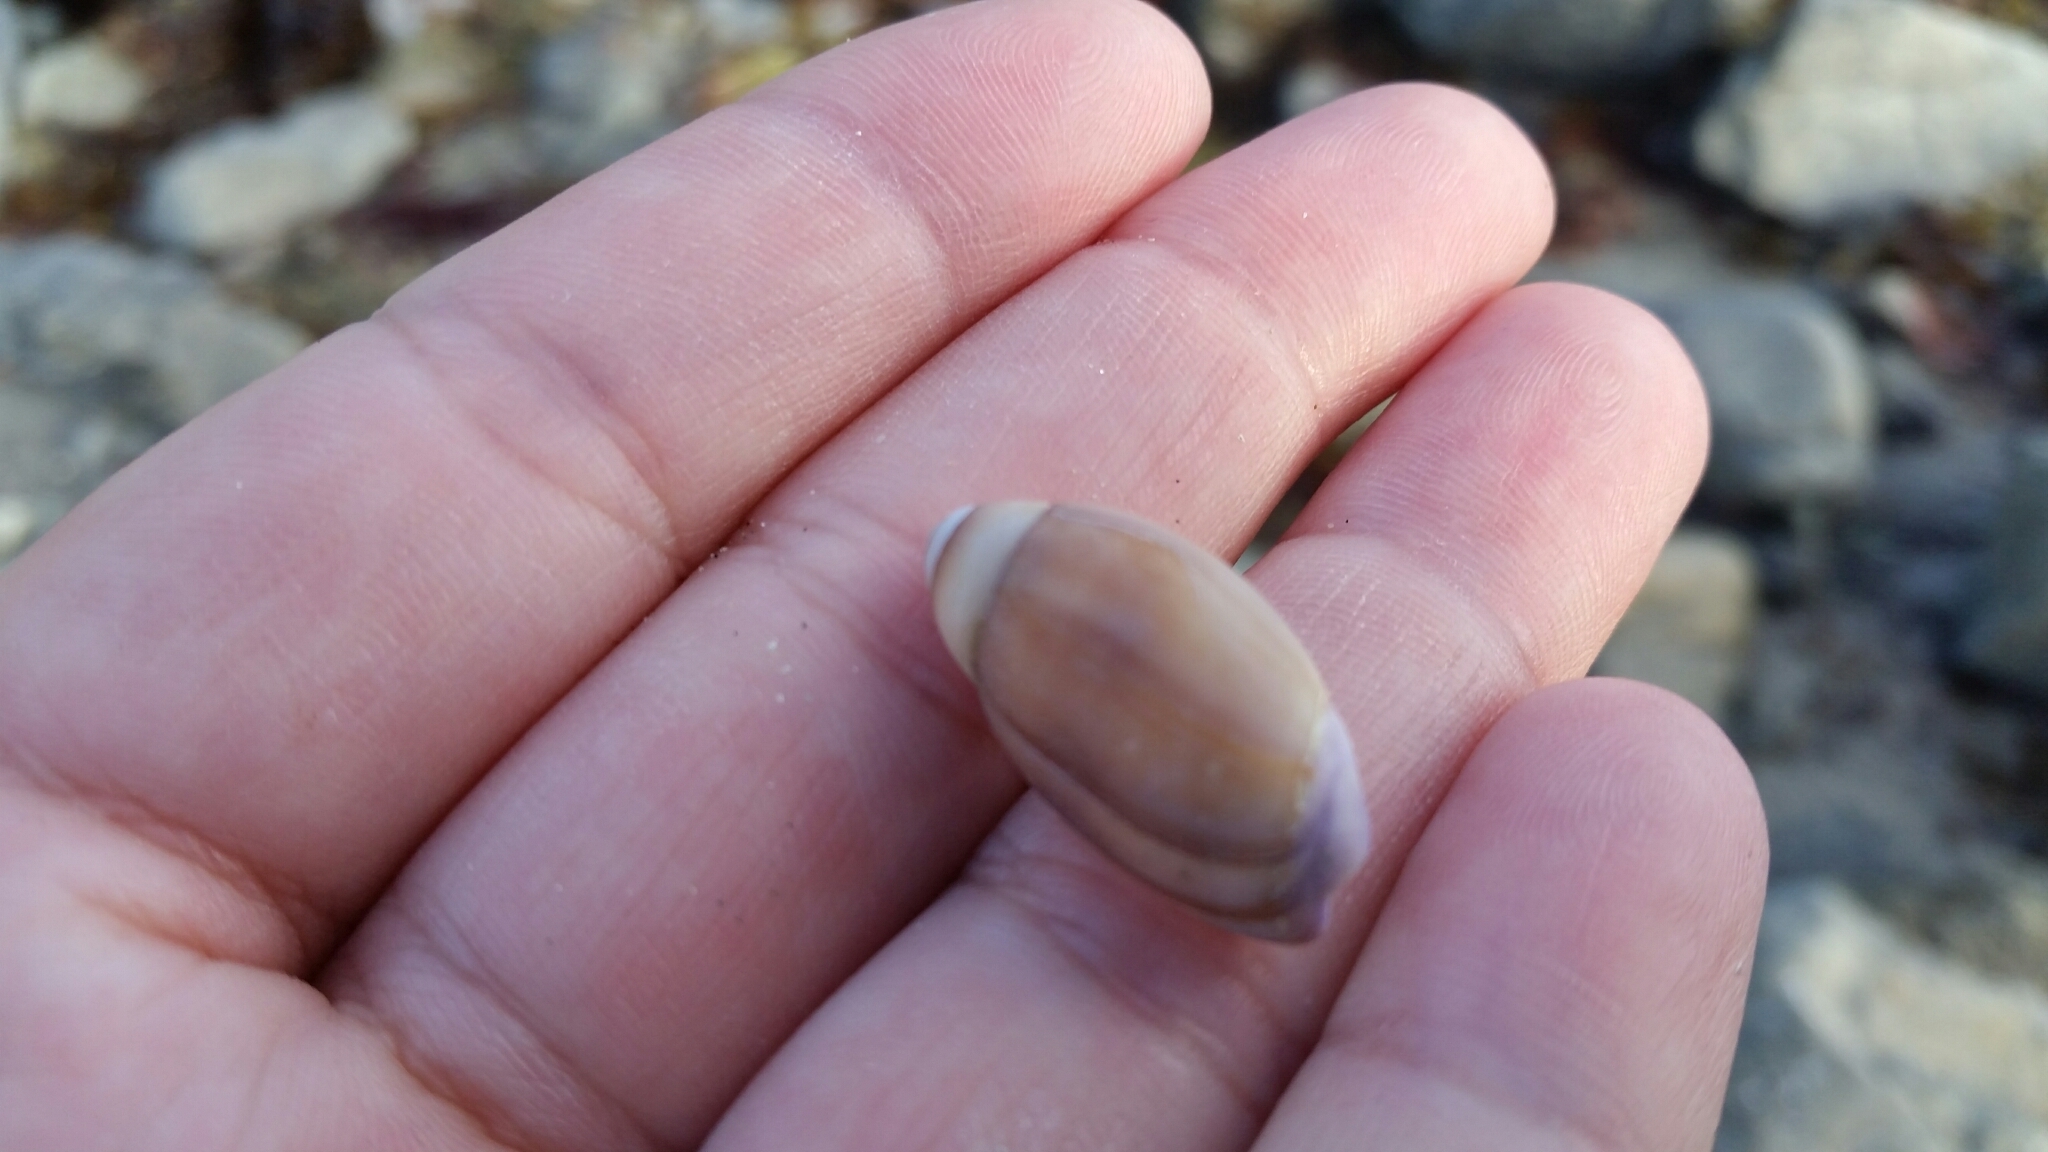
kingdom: Animalia
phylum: Mollusca
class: Gastropoda
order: Neogastropoda
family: Olividae
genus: Callianax
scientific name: Callianax biplicata
